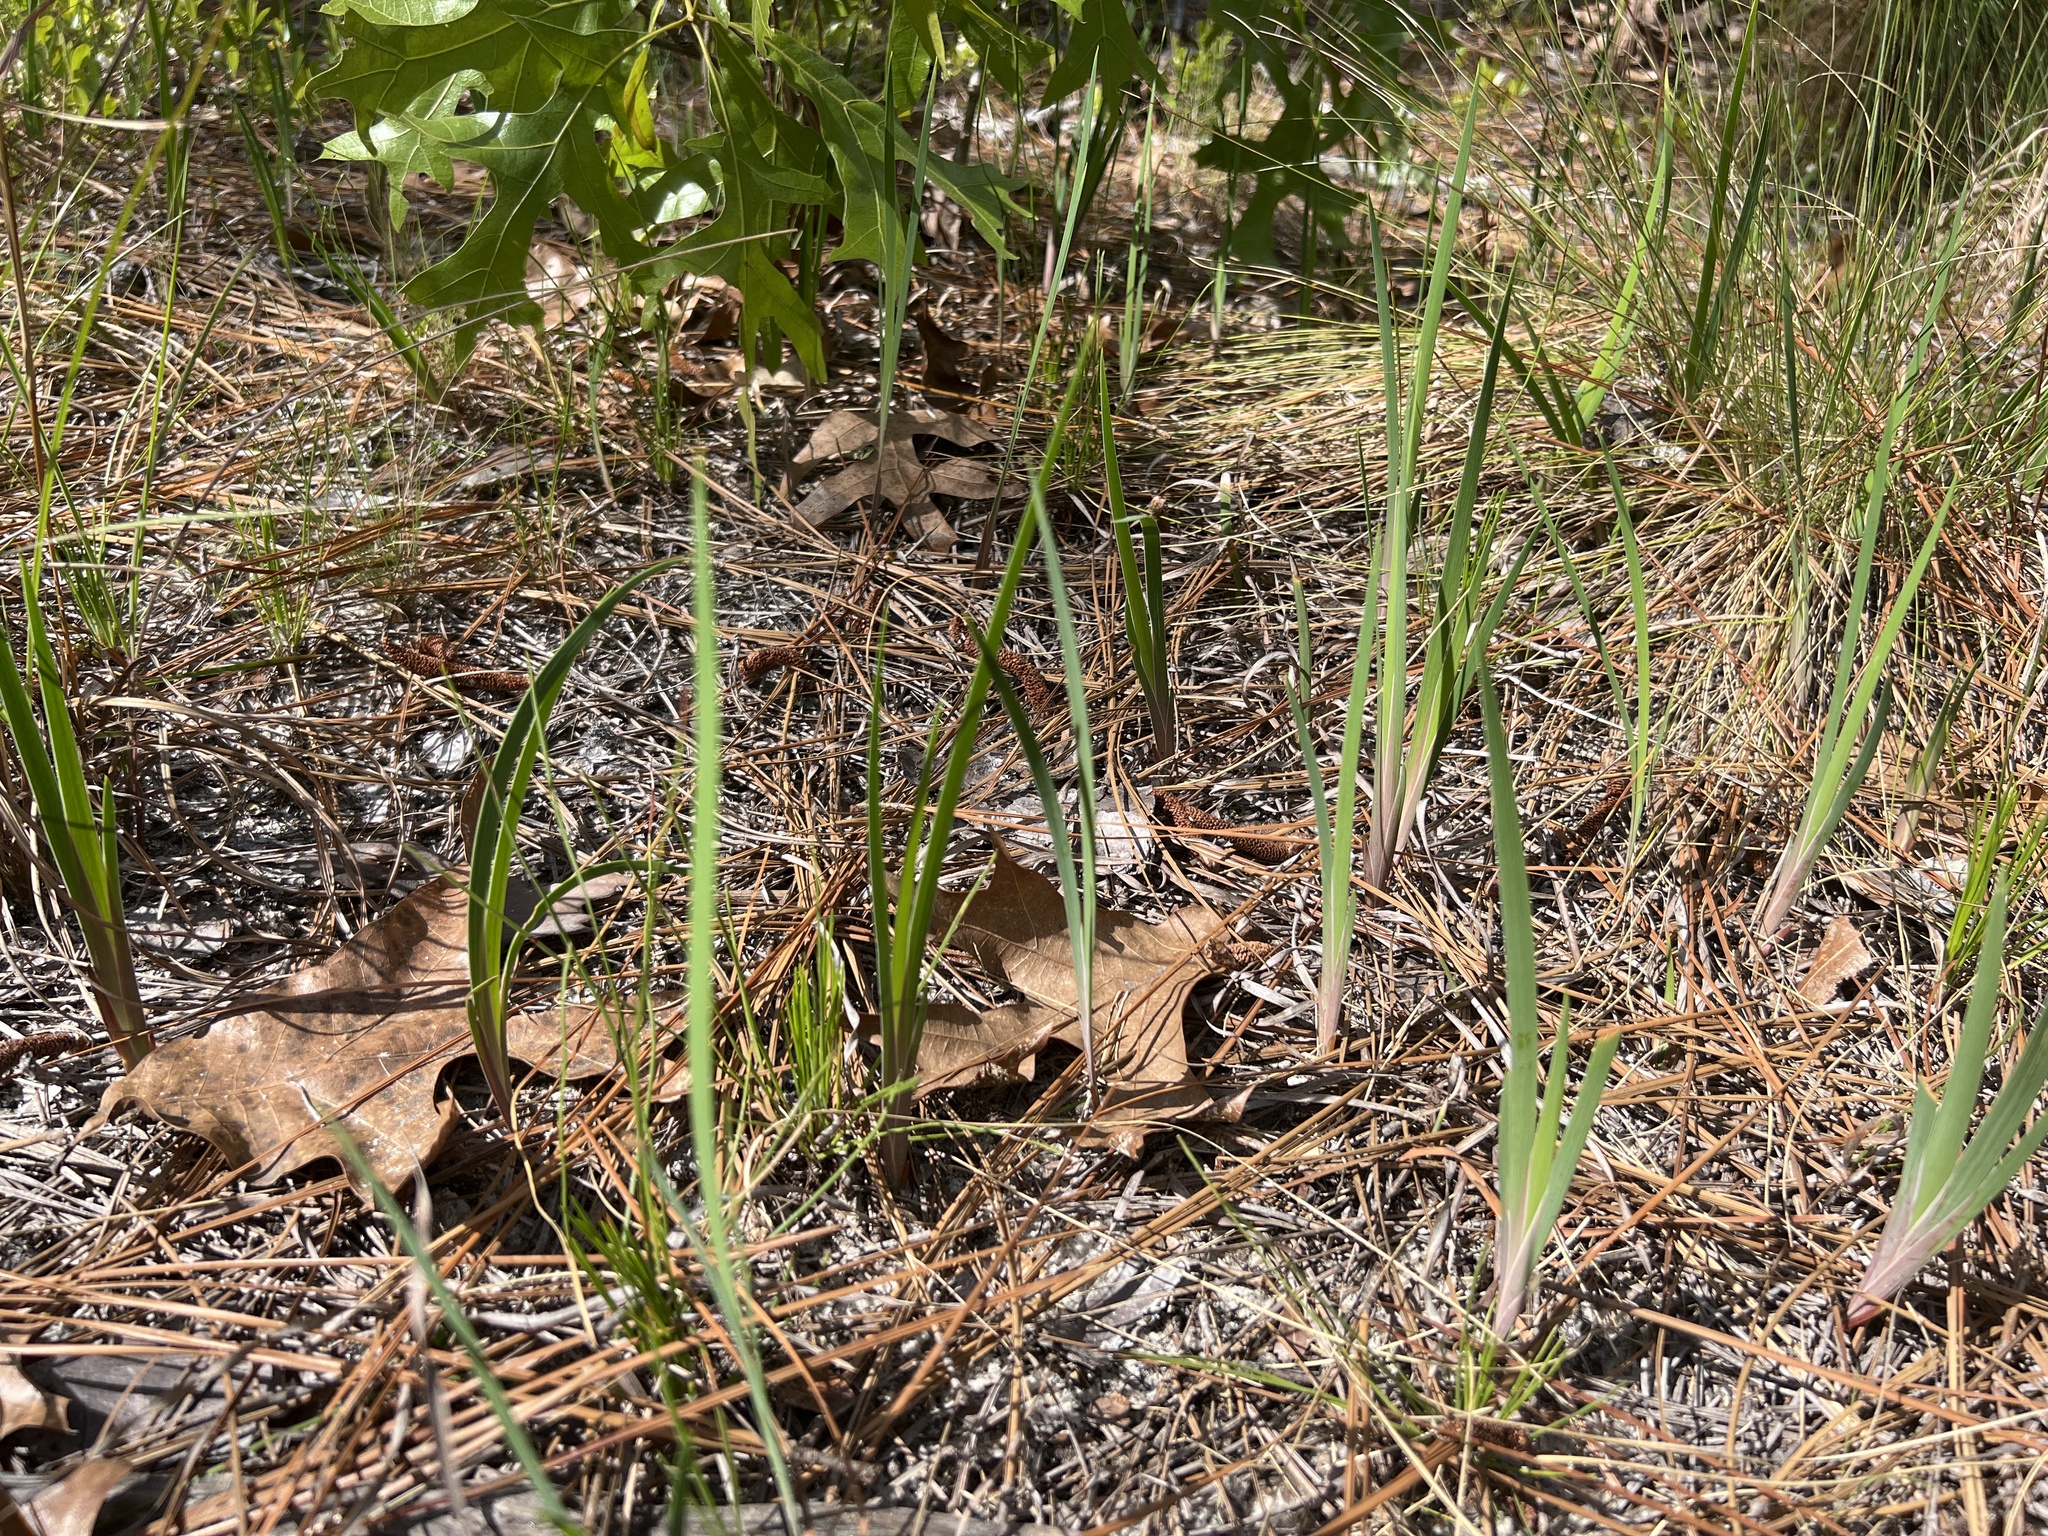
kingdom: Plantae
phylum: Tracheophyta
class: Liliopsida
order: Asparagales
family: Iridaceae
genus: Iris
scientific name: Iris verna
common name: Dwarf iris
